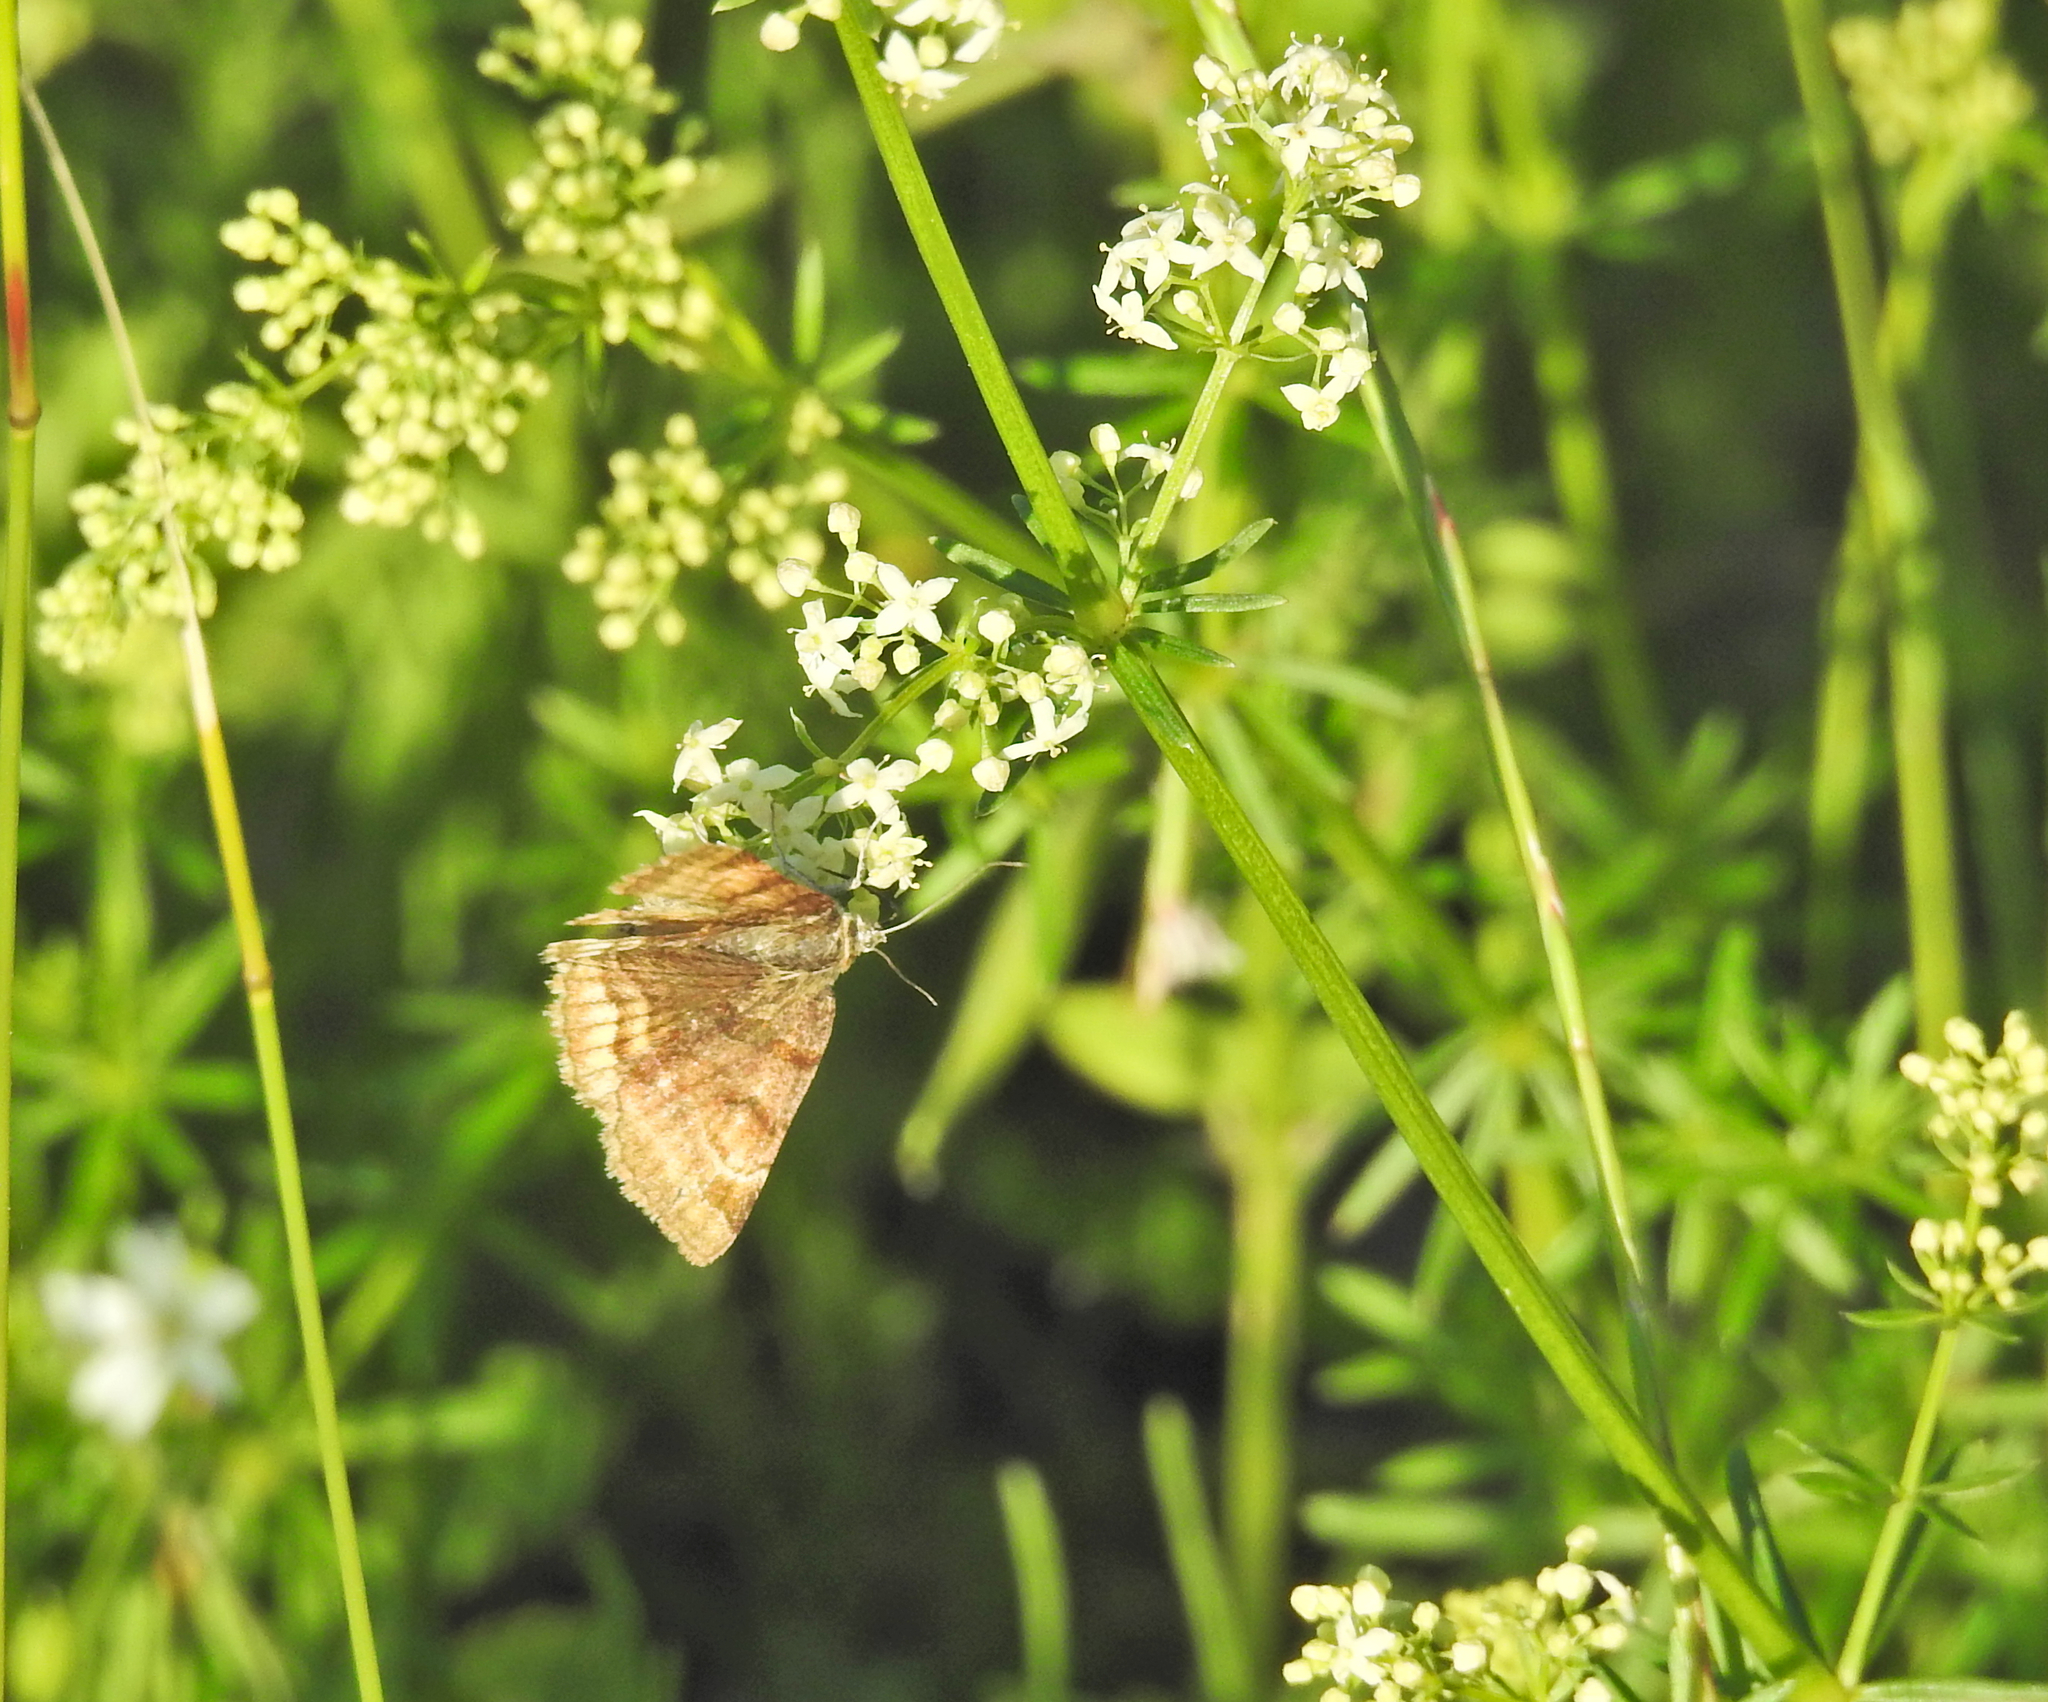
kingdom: Animalia
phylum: Arthropoda
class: Insecta
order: Lepidoptera
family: Erebidae
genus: Euclidia
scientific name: Euclidia glyphica
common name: Burnet companion
